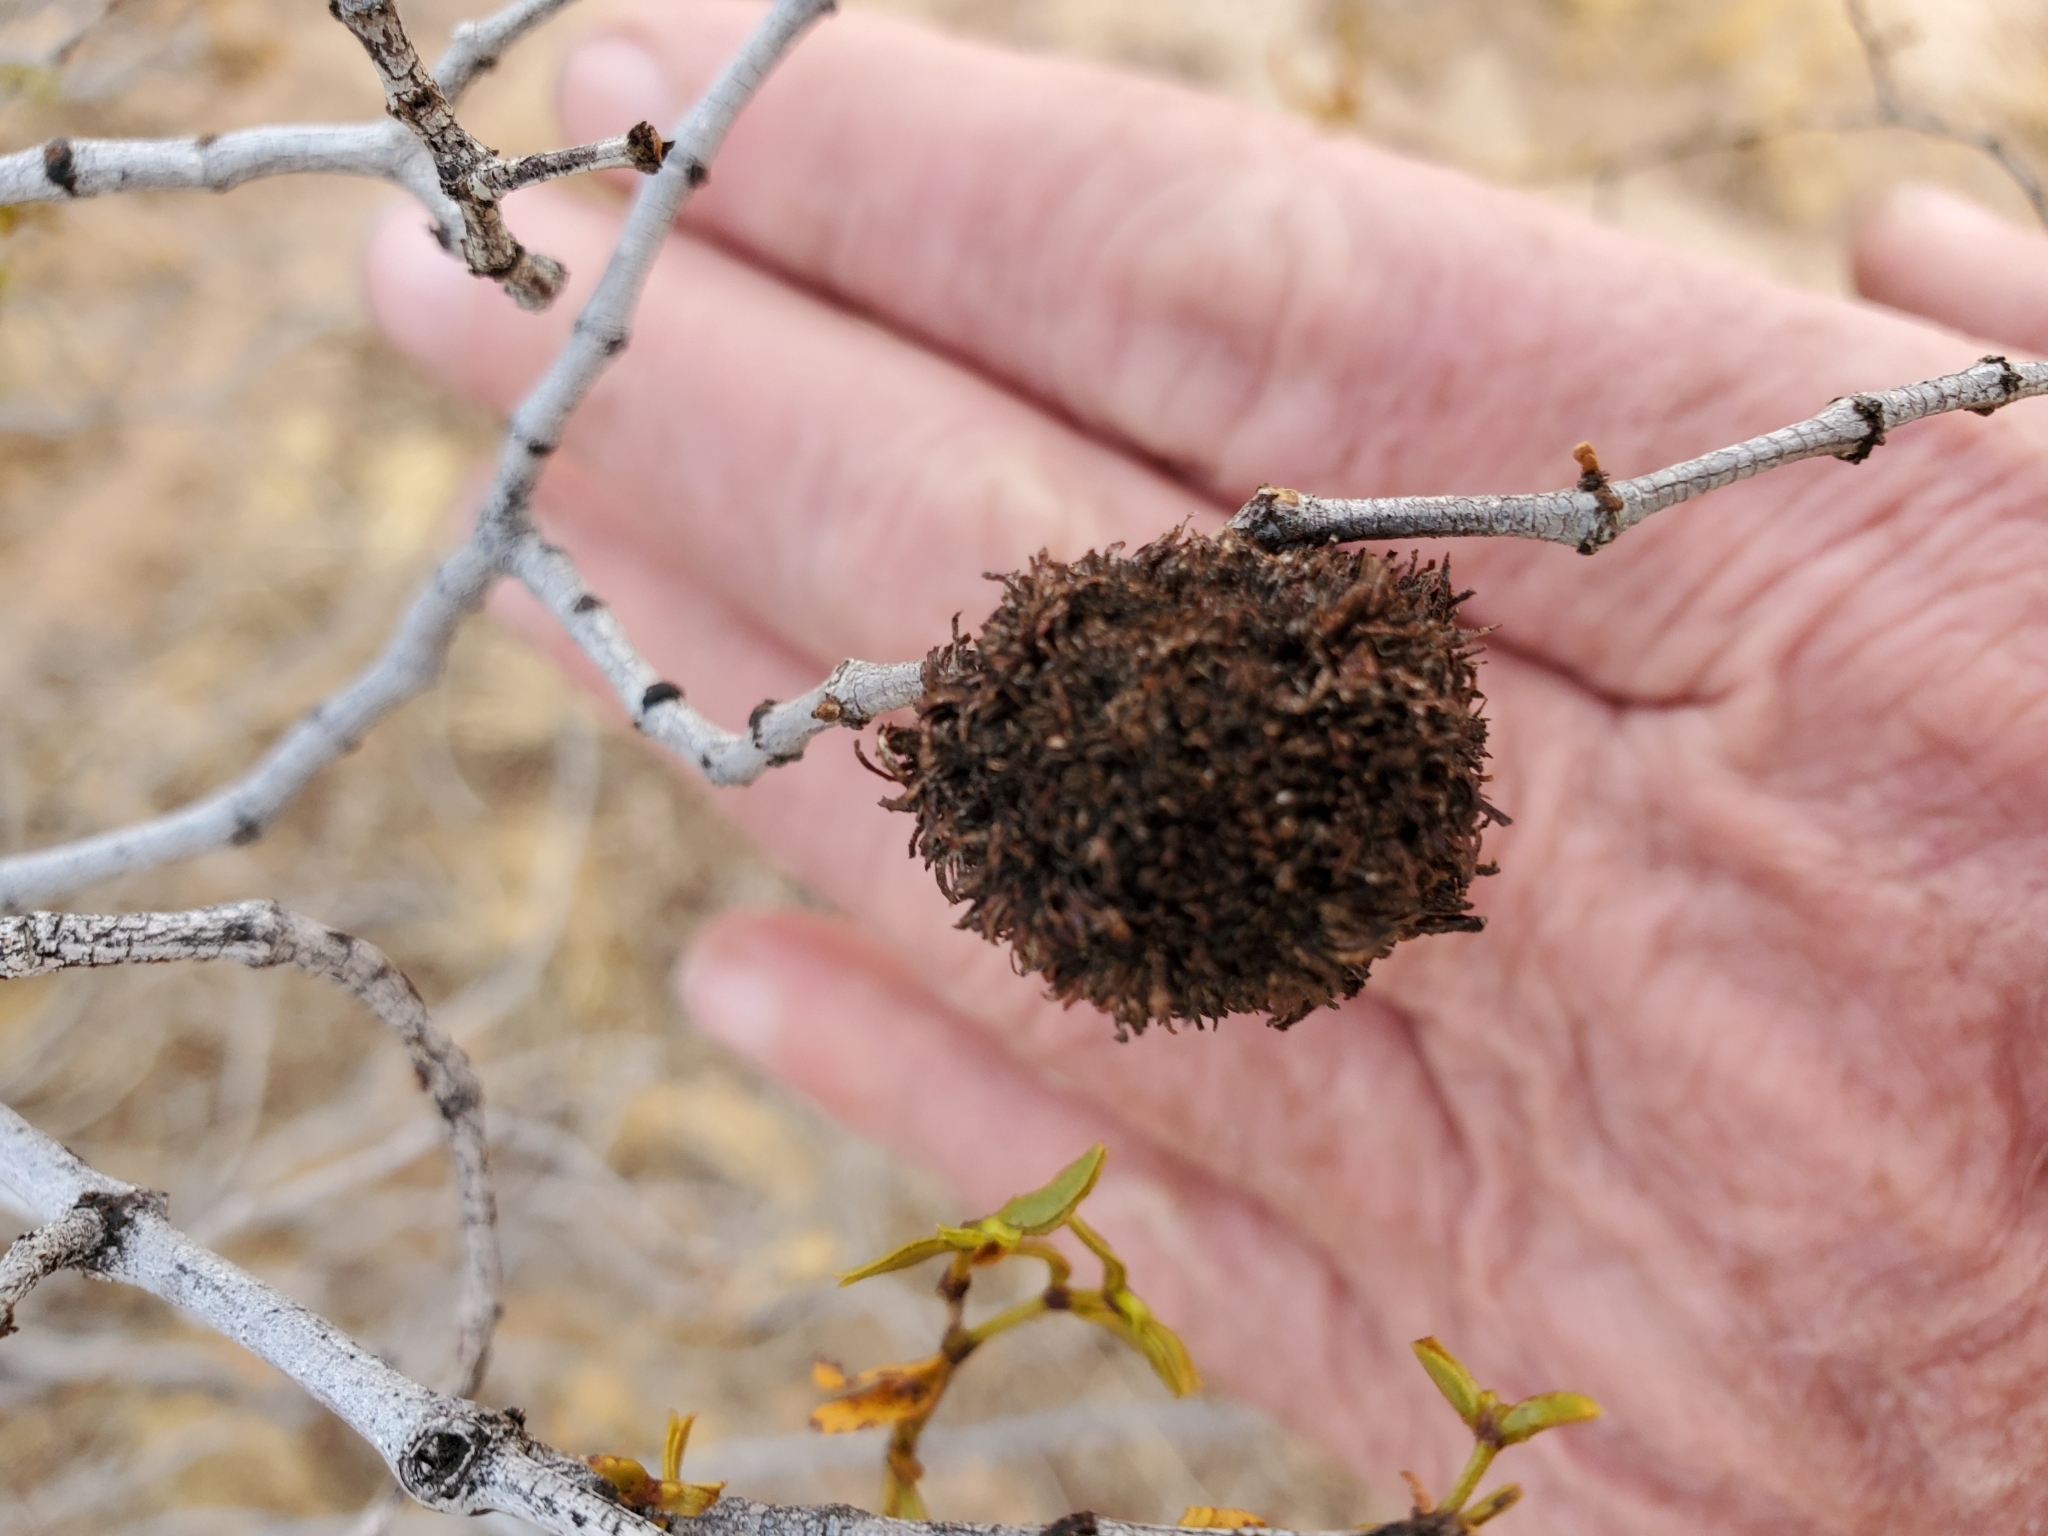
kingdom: Animalia
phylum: Arthropoda
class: Insecta
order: Diptera
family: Cecidomyiidae
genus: Asphondylia
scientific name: Asphondylia auripila
